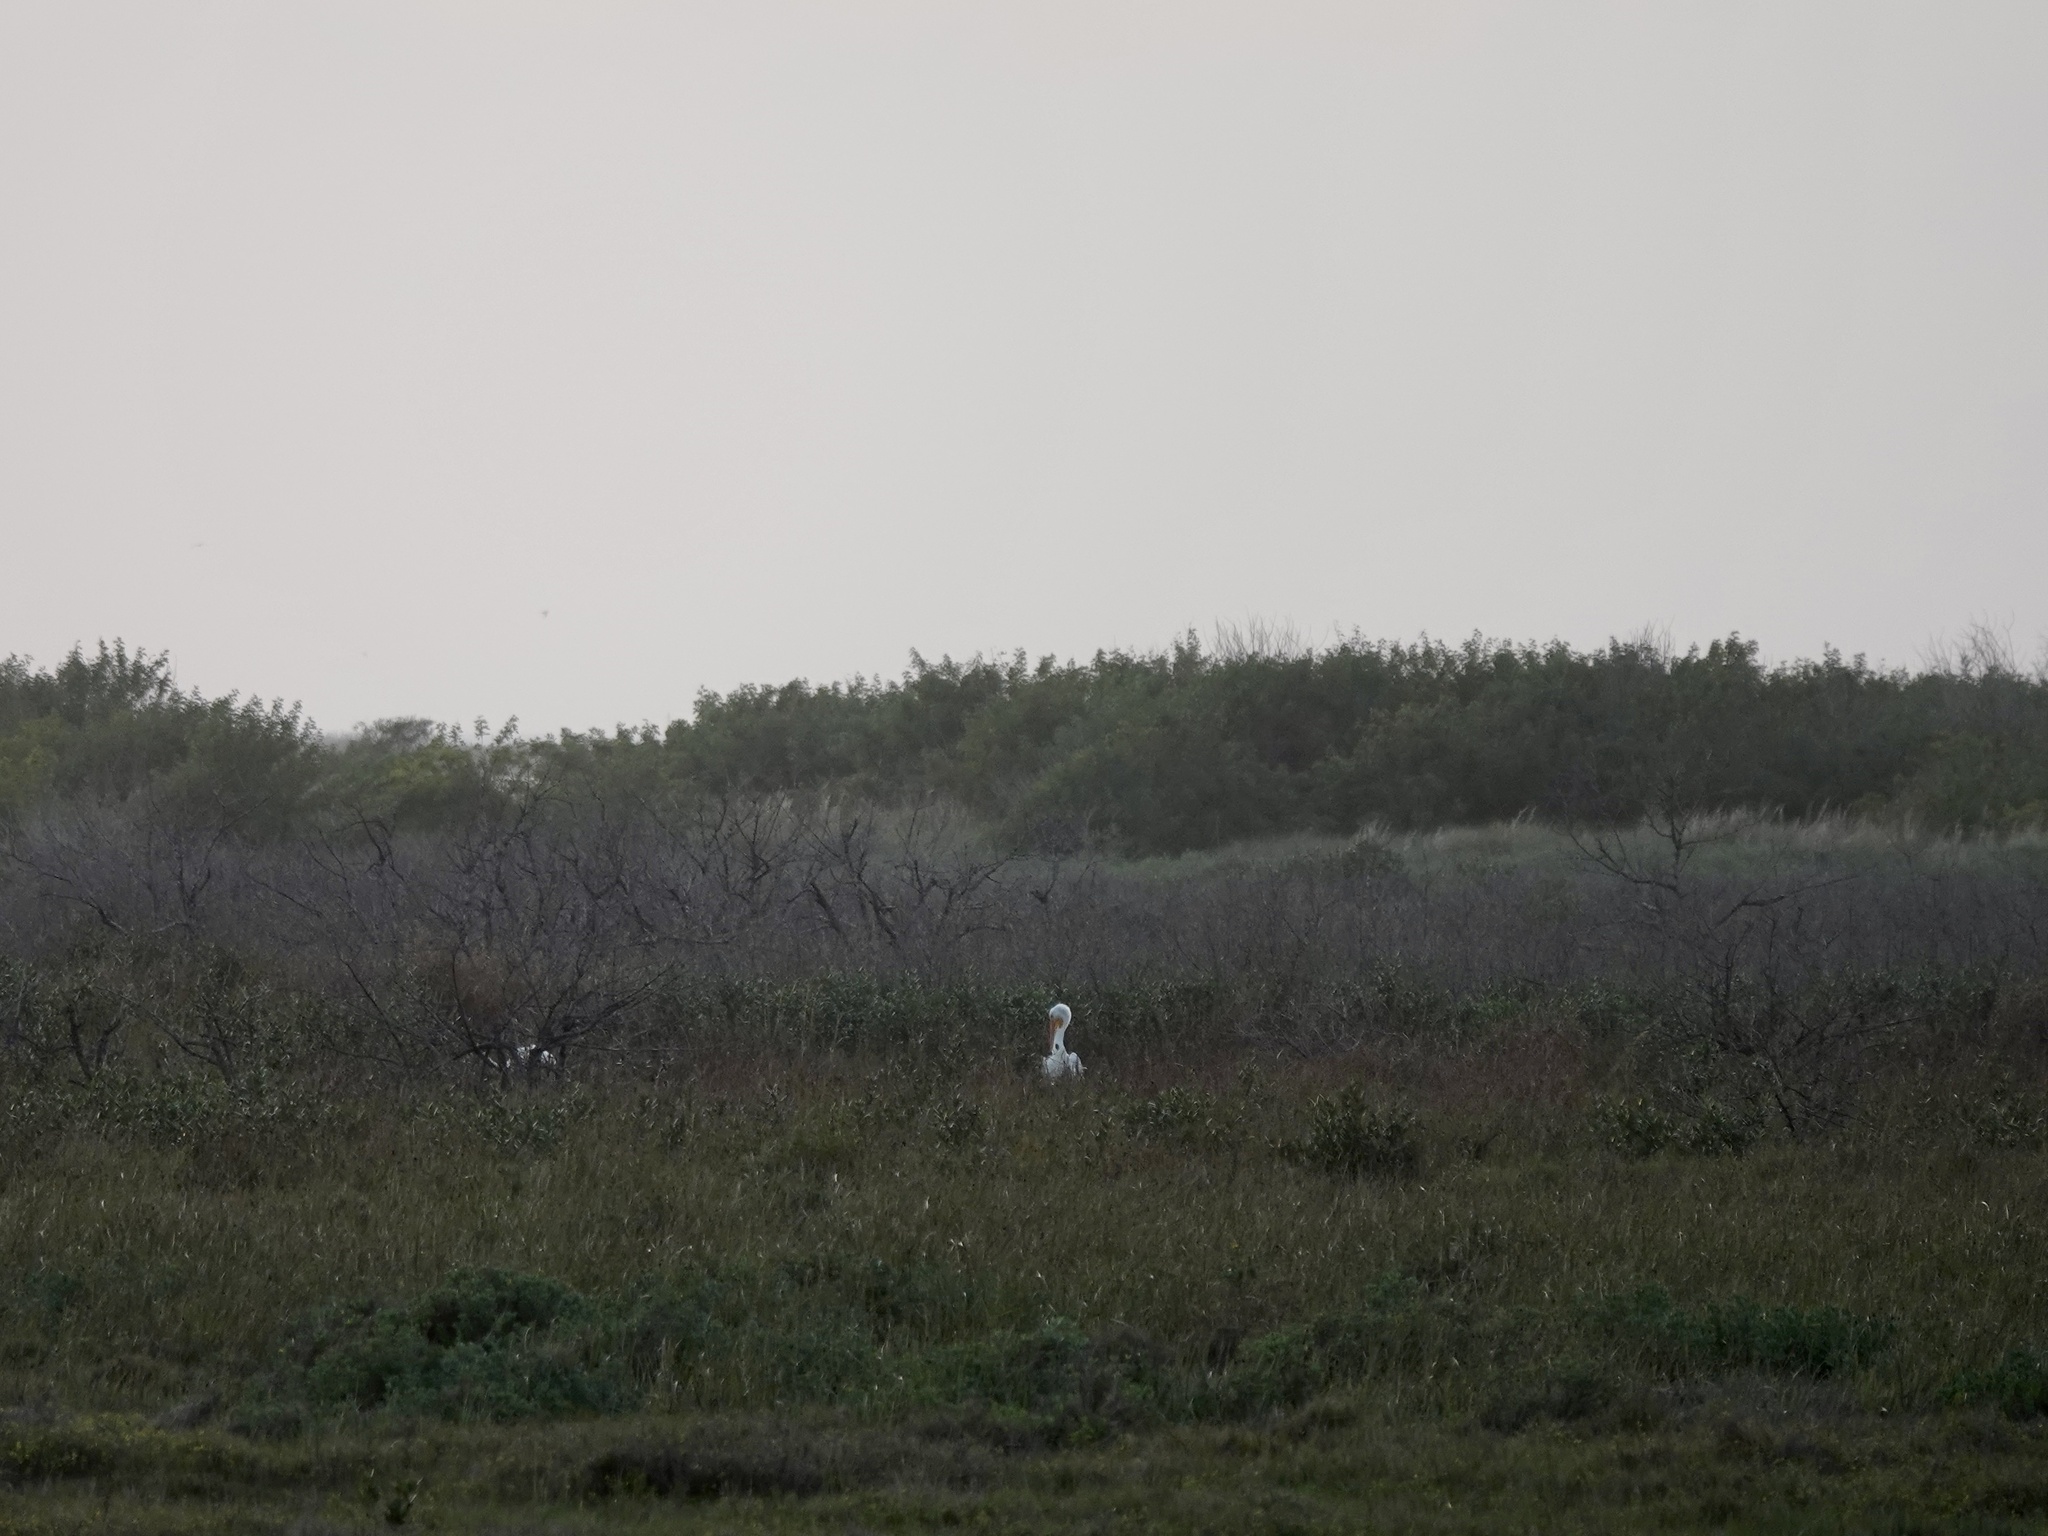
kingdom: Animalia
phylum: Chordata
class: Aves
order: Pelecaniformes
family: Pelecanidae
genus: Pelecanus
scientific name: Pelecanus erythrorhynchos
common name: American white pelican
